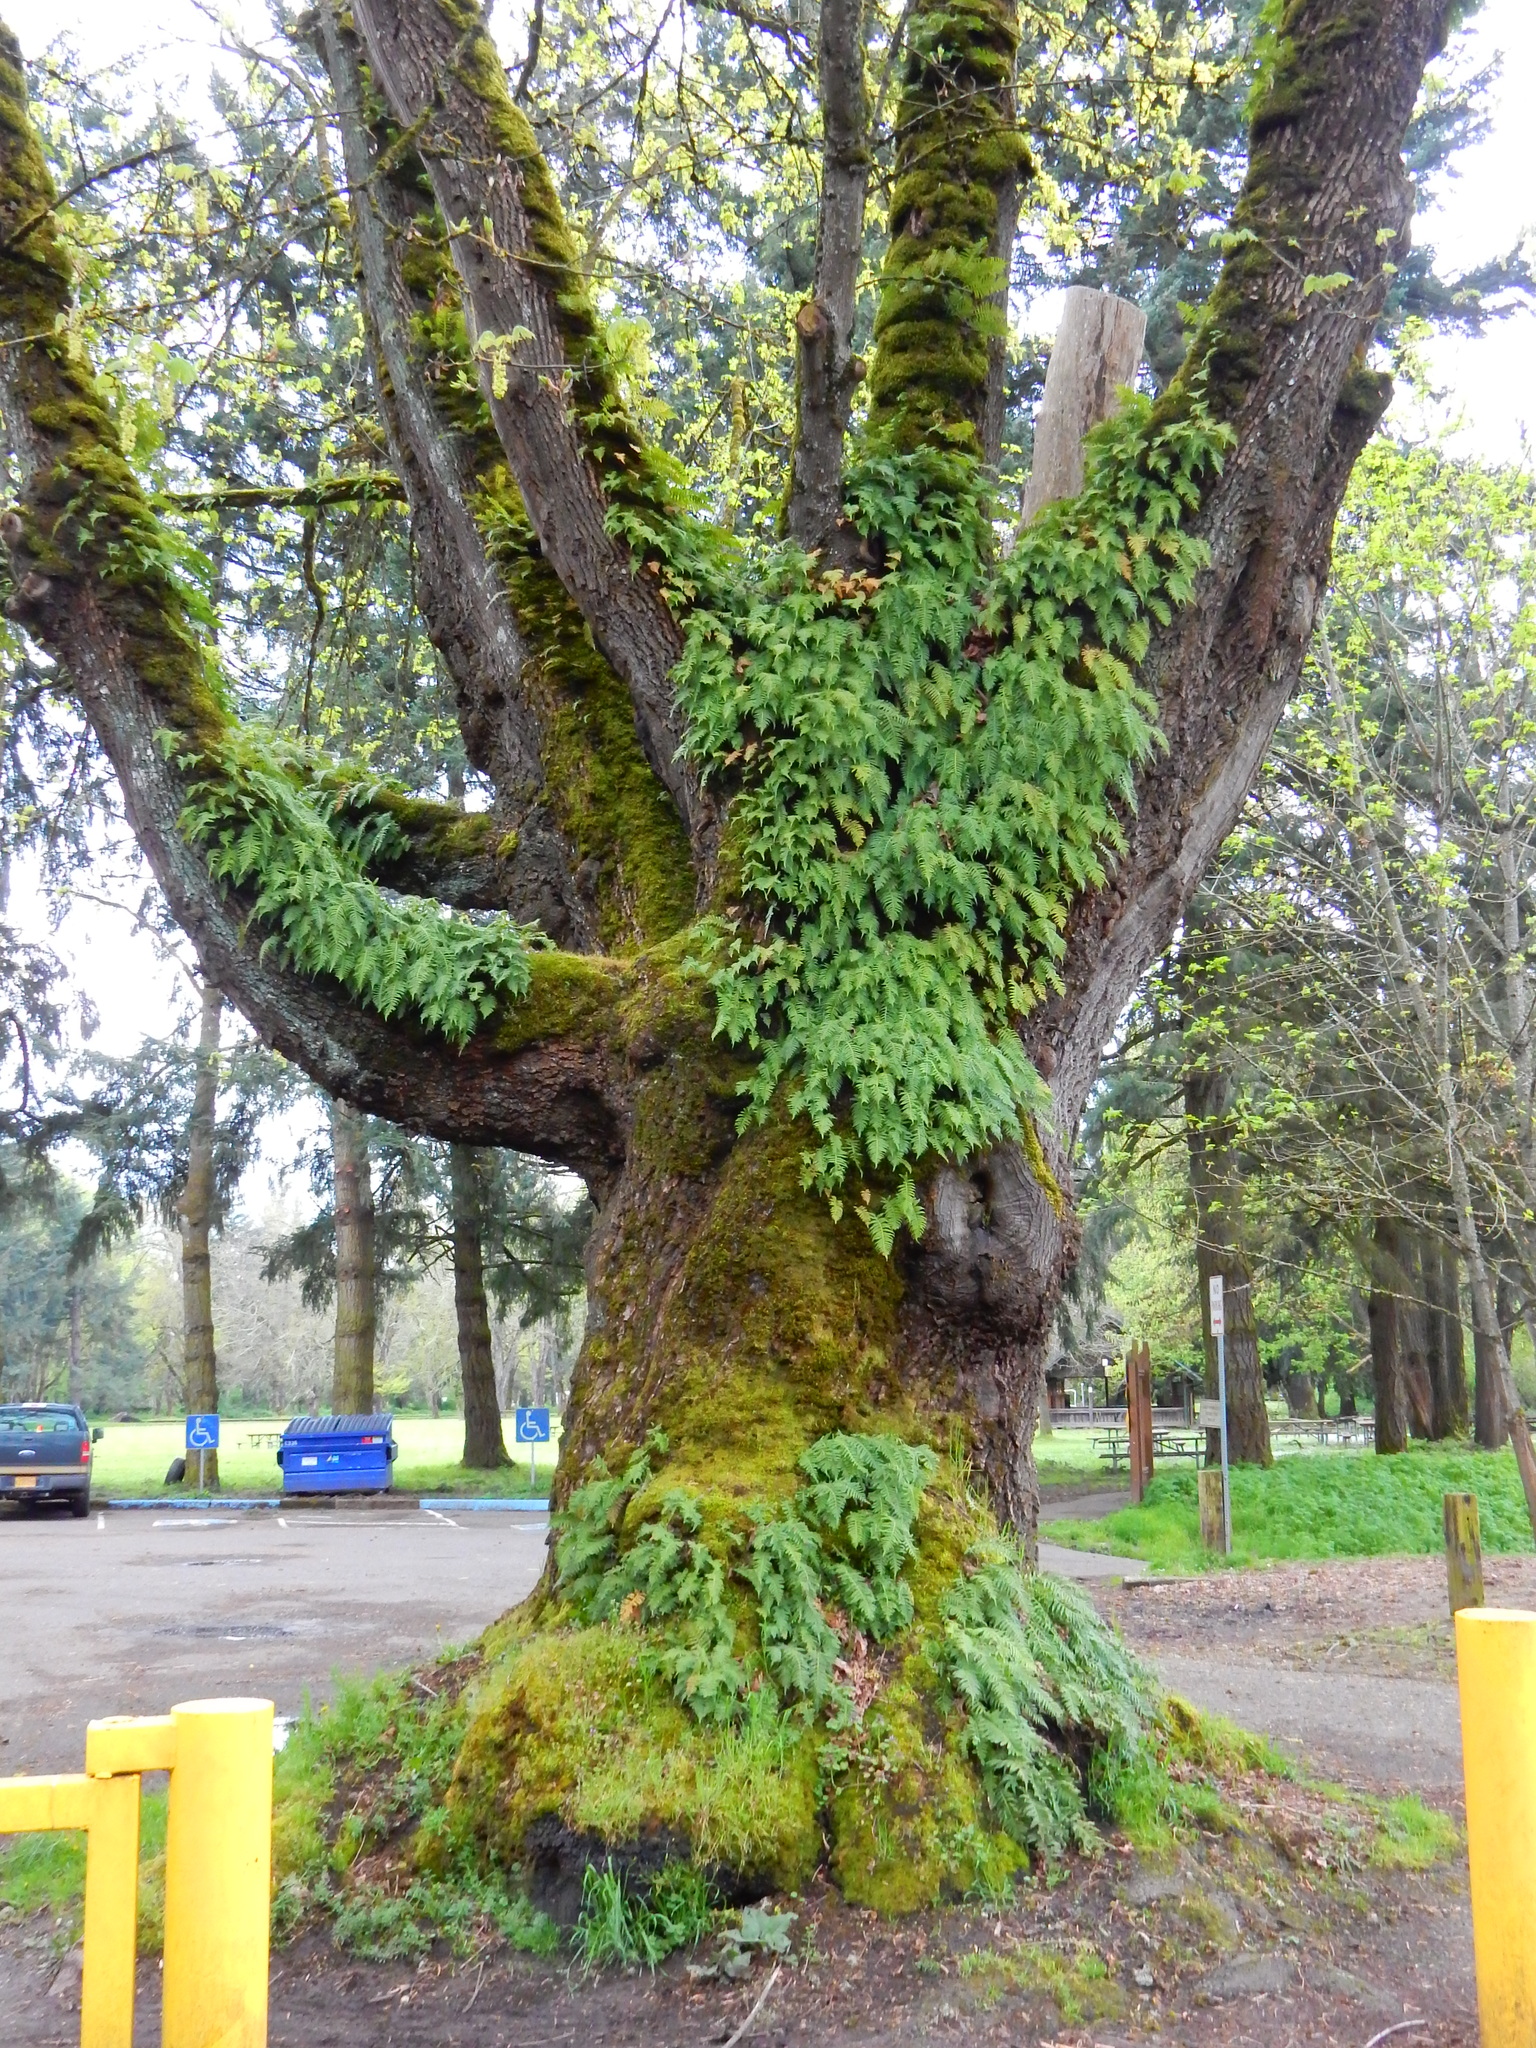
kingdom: Plantae
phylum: Tracheophyta
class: Polypodiopsida
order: Polypodiales
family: Polypodiaceae
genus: Polypodium
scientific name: Polypodium glycyrrhiza
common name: Licorice fern
